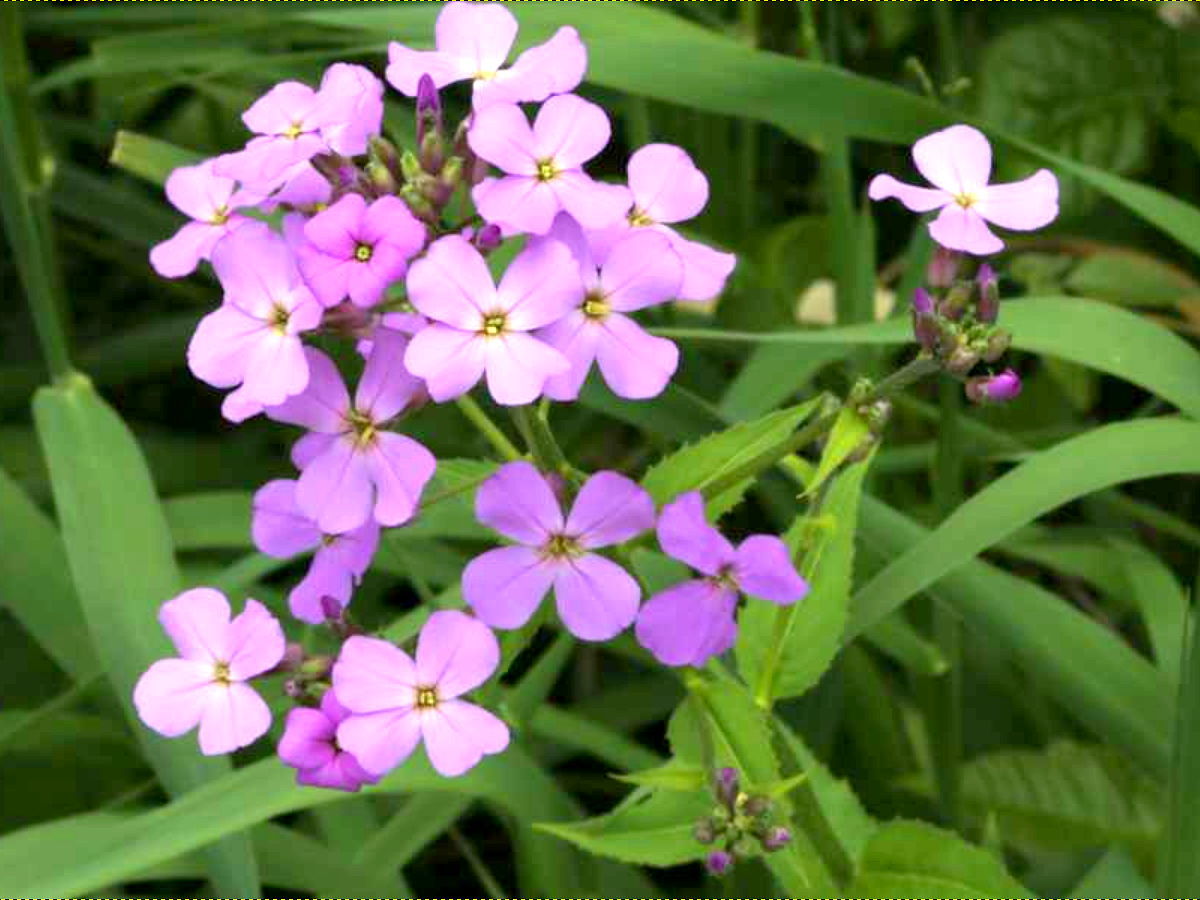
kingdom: Plantae
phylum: Tracheophyta
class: Magnoliopsida
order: Brassicales
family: Brassicaceae
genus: Hesperis
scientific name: Hesperis matronalis
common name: Dame's-violet
